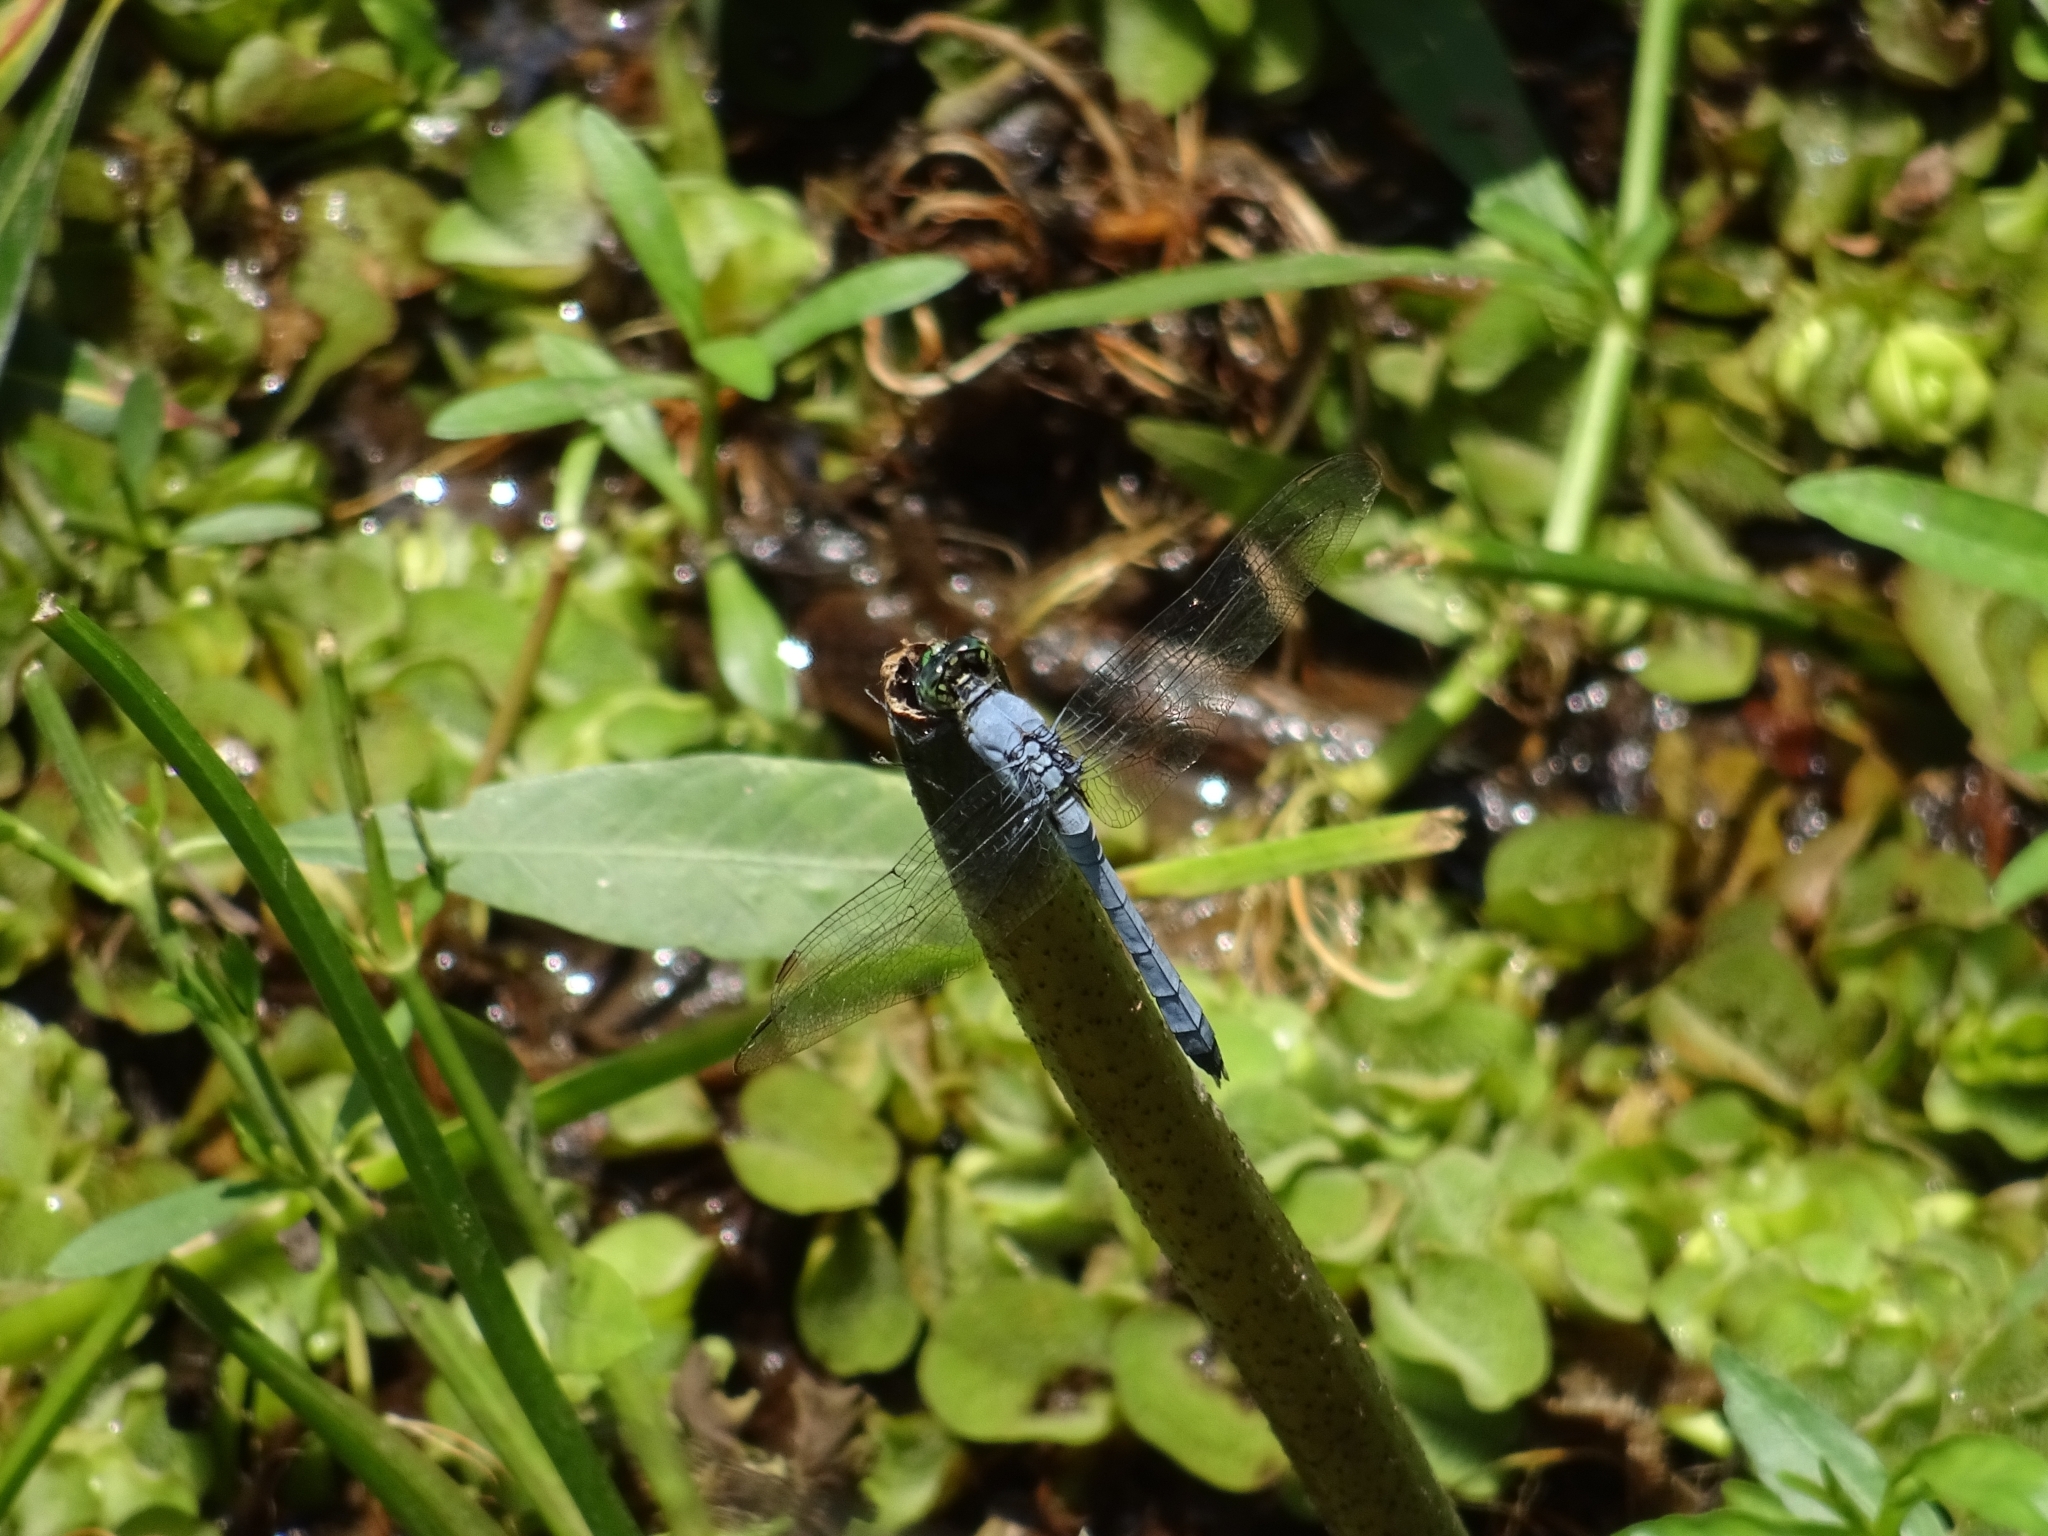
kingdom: Animalia
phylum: Arthropoda
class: Insecta
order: Odonata
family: Libellulidae
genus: Erythemis
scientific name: Erythemis simplicicollis
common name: Eastern pondhawk
